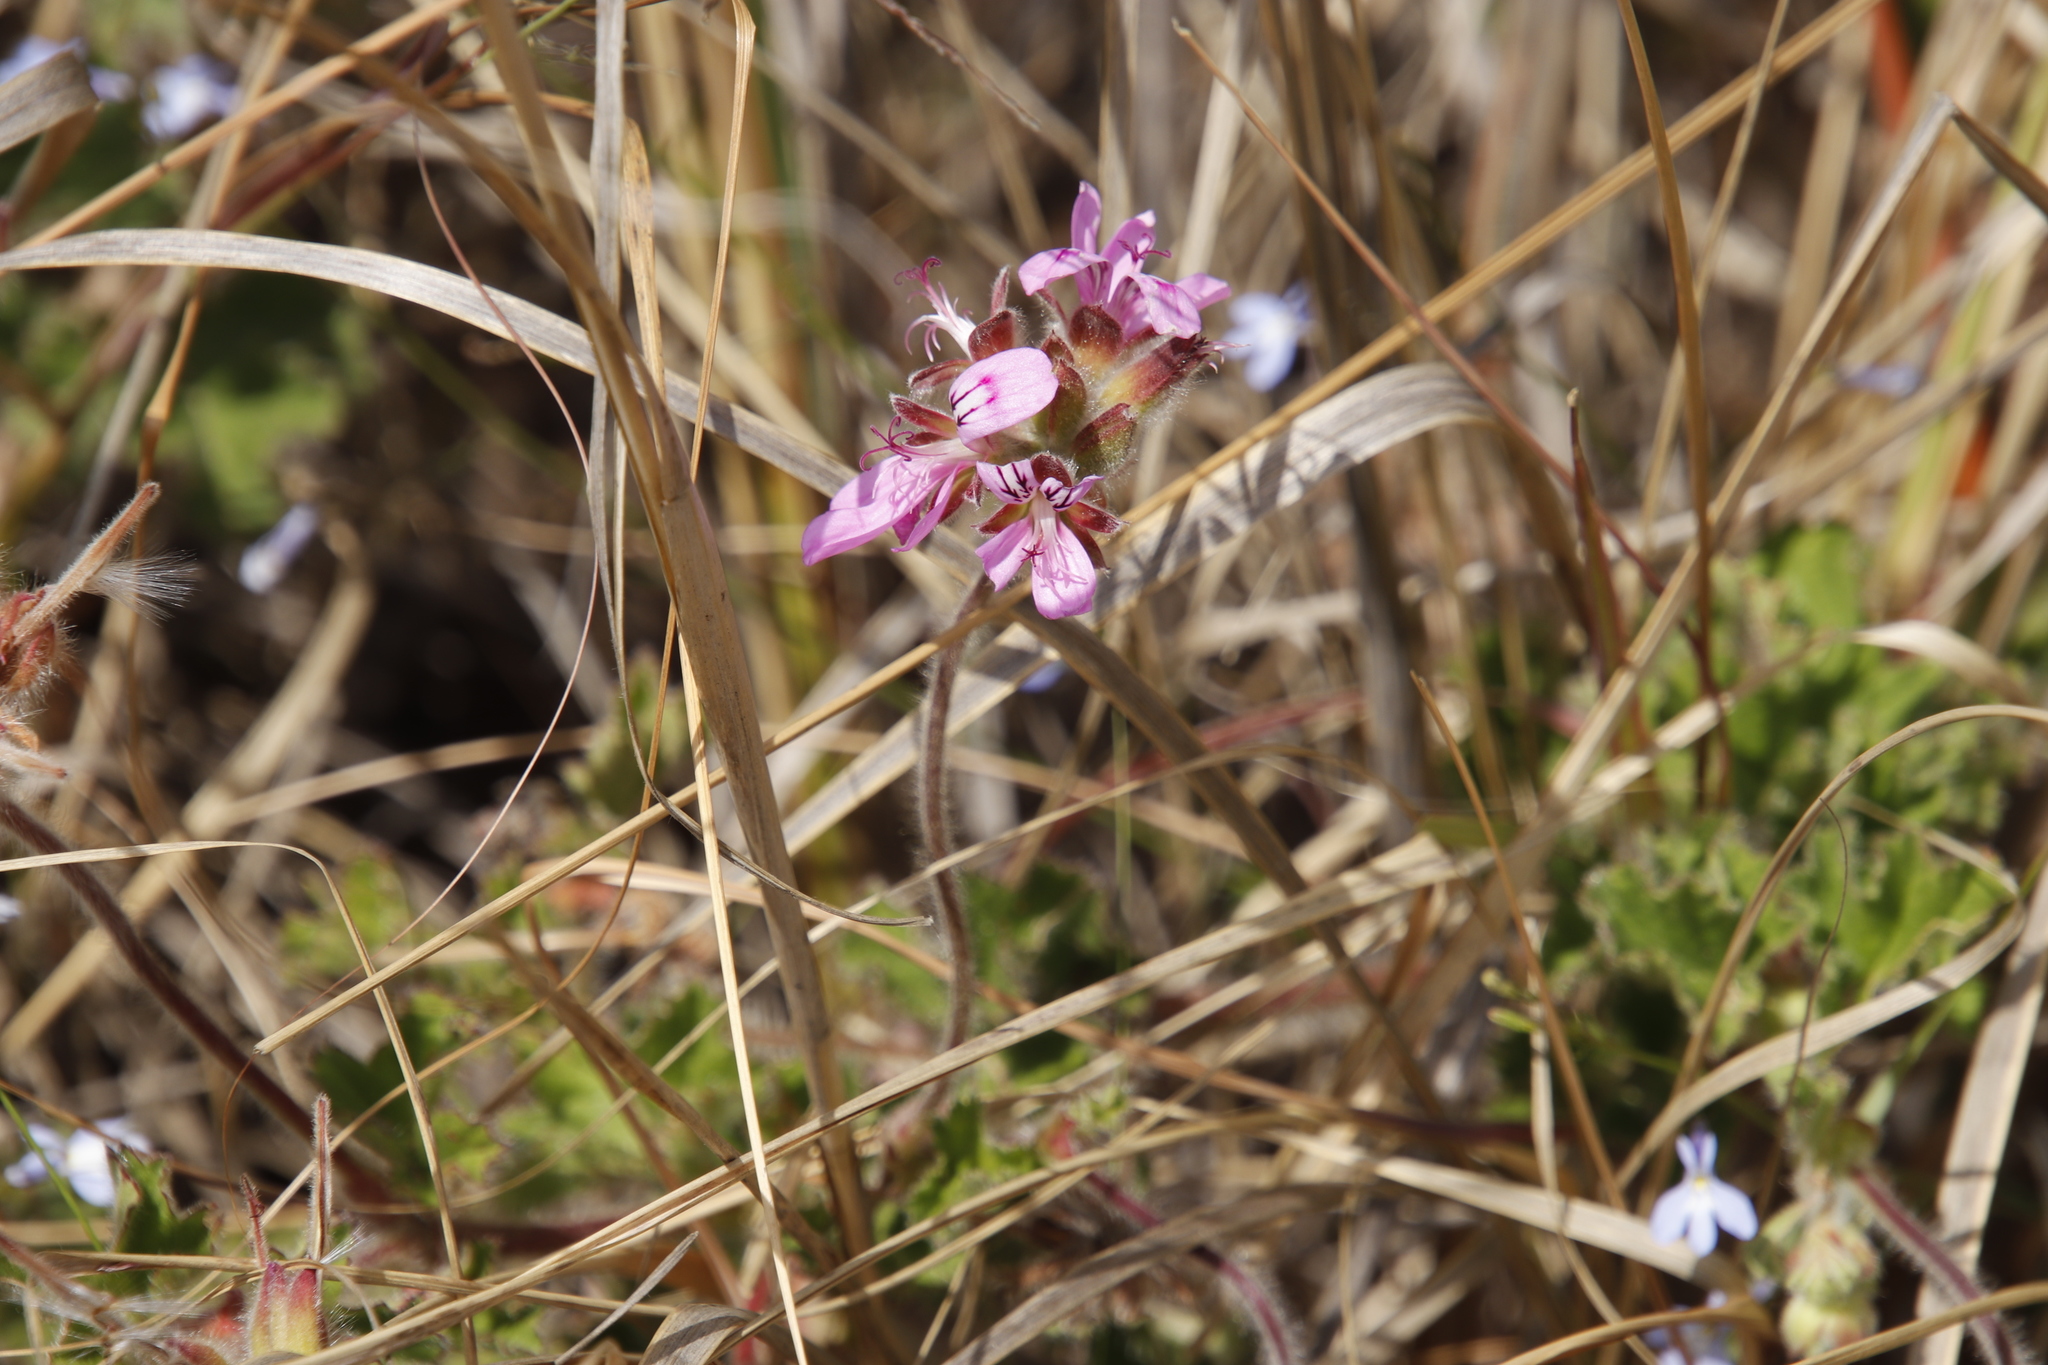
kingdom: Plantae
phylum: Tracheophyta
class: Magnoliopsida
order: Geraniales
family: Geraniaceae
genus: Pelargonium
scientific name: Pelargonium capitatum
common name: Rose scented geranium
